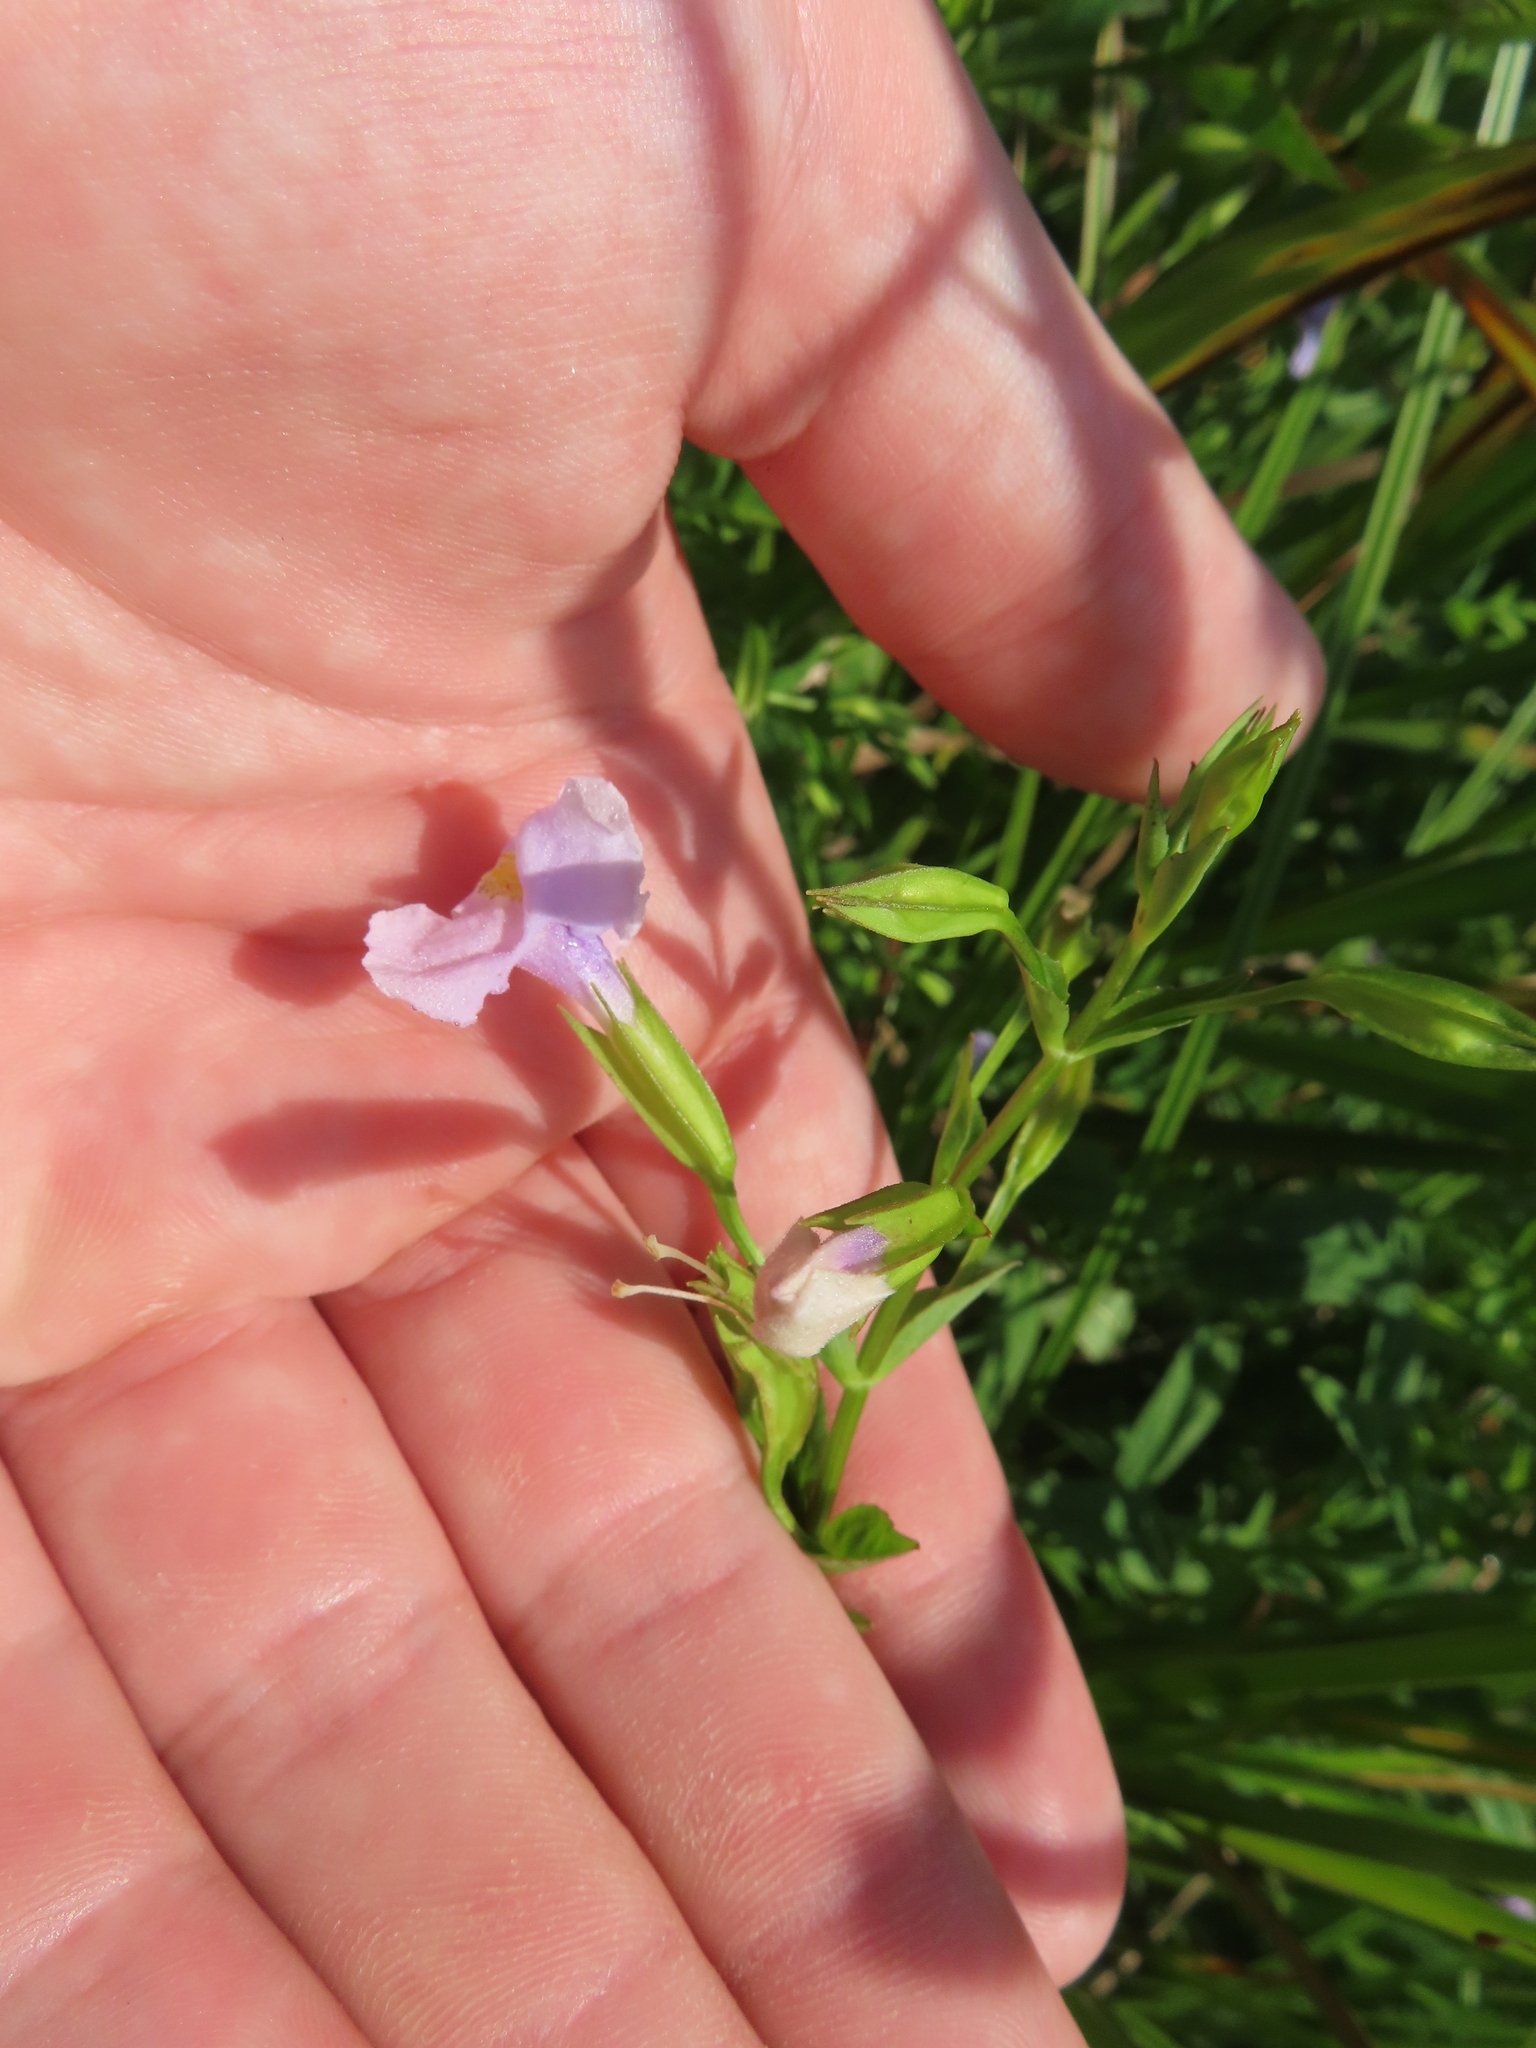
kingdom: Plantae
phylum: Tracheophyta
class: Magnoliopsida
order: Lamiales
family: Phrymaceae
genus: Mimulus
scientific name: Mimulus ringens
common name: Allegheny monkeyflower
